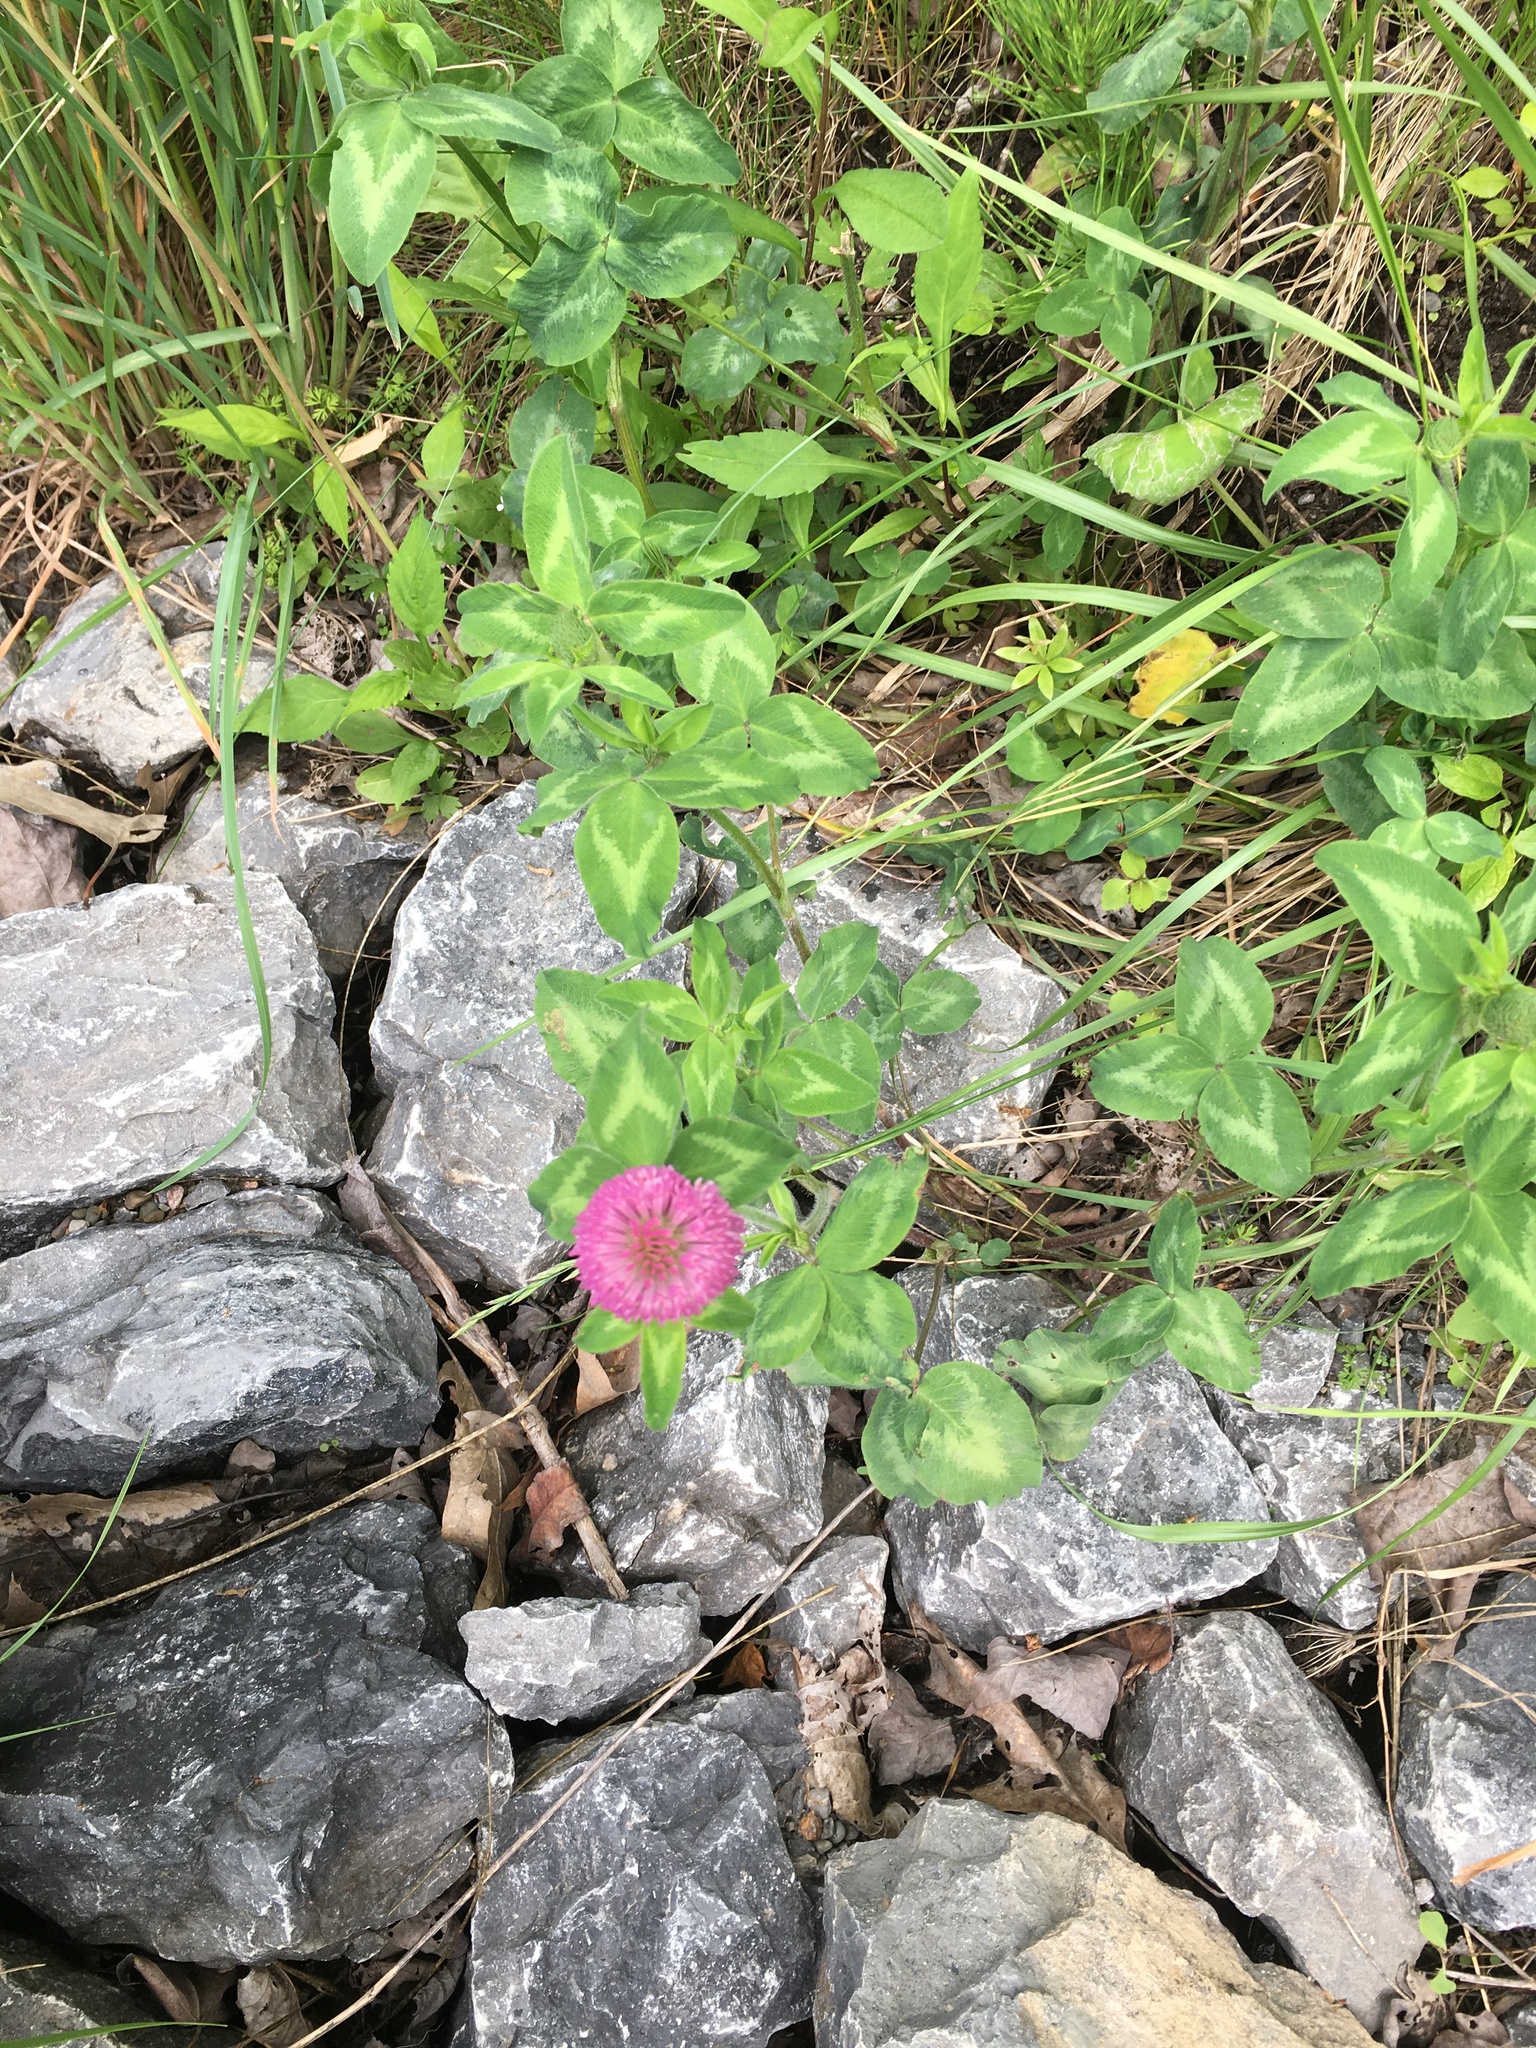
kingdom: Plantae
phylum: Tracheophyta
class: Magnoliopsida
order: Fabales
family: Fabaceae
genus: Trifolium
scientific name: Trifolium pratense
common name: Red clover
